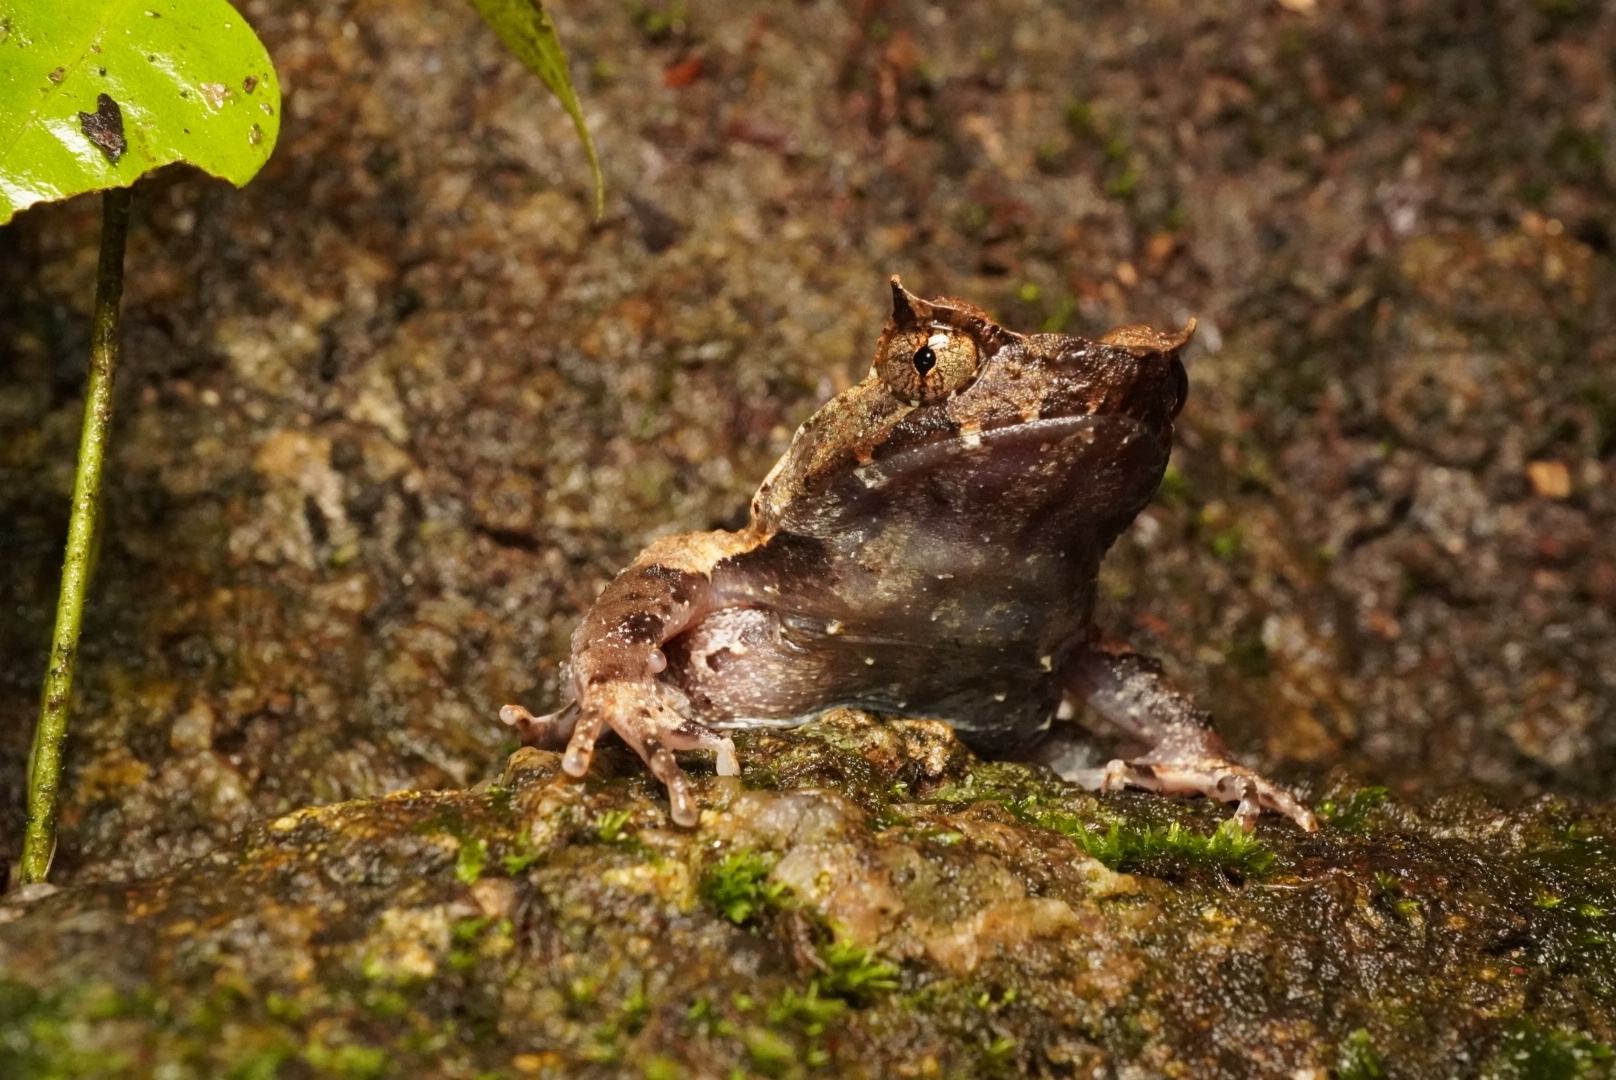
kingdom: Animalia
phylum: Chordata
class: Amphibia
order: Anura
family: Megophryidae
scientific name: Megophryidae
